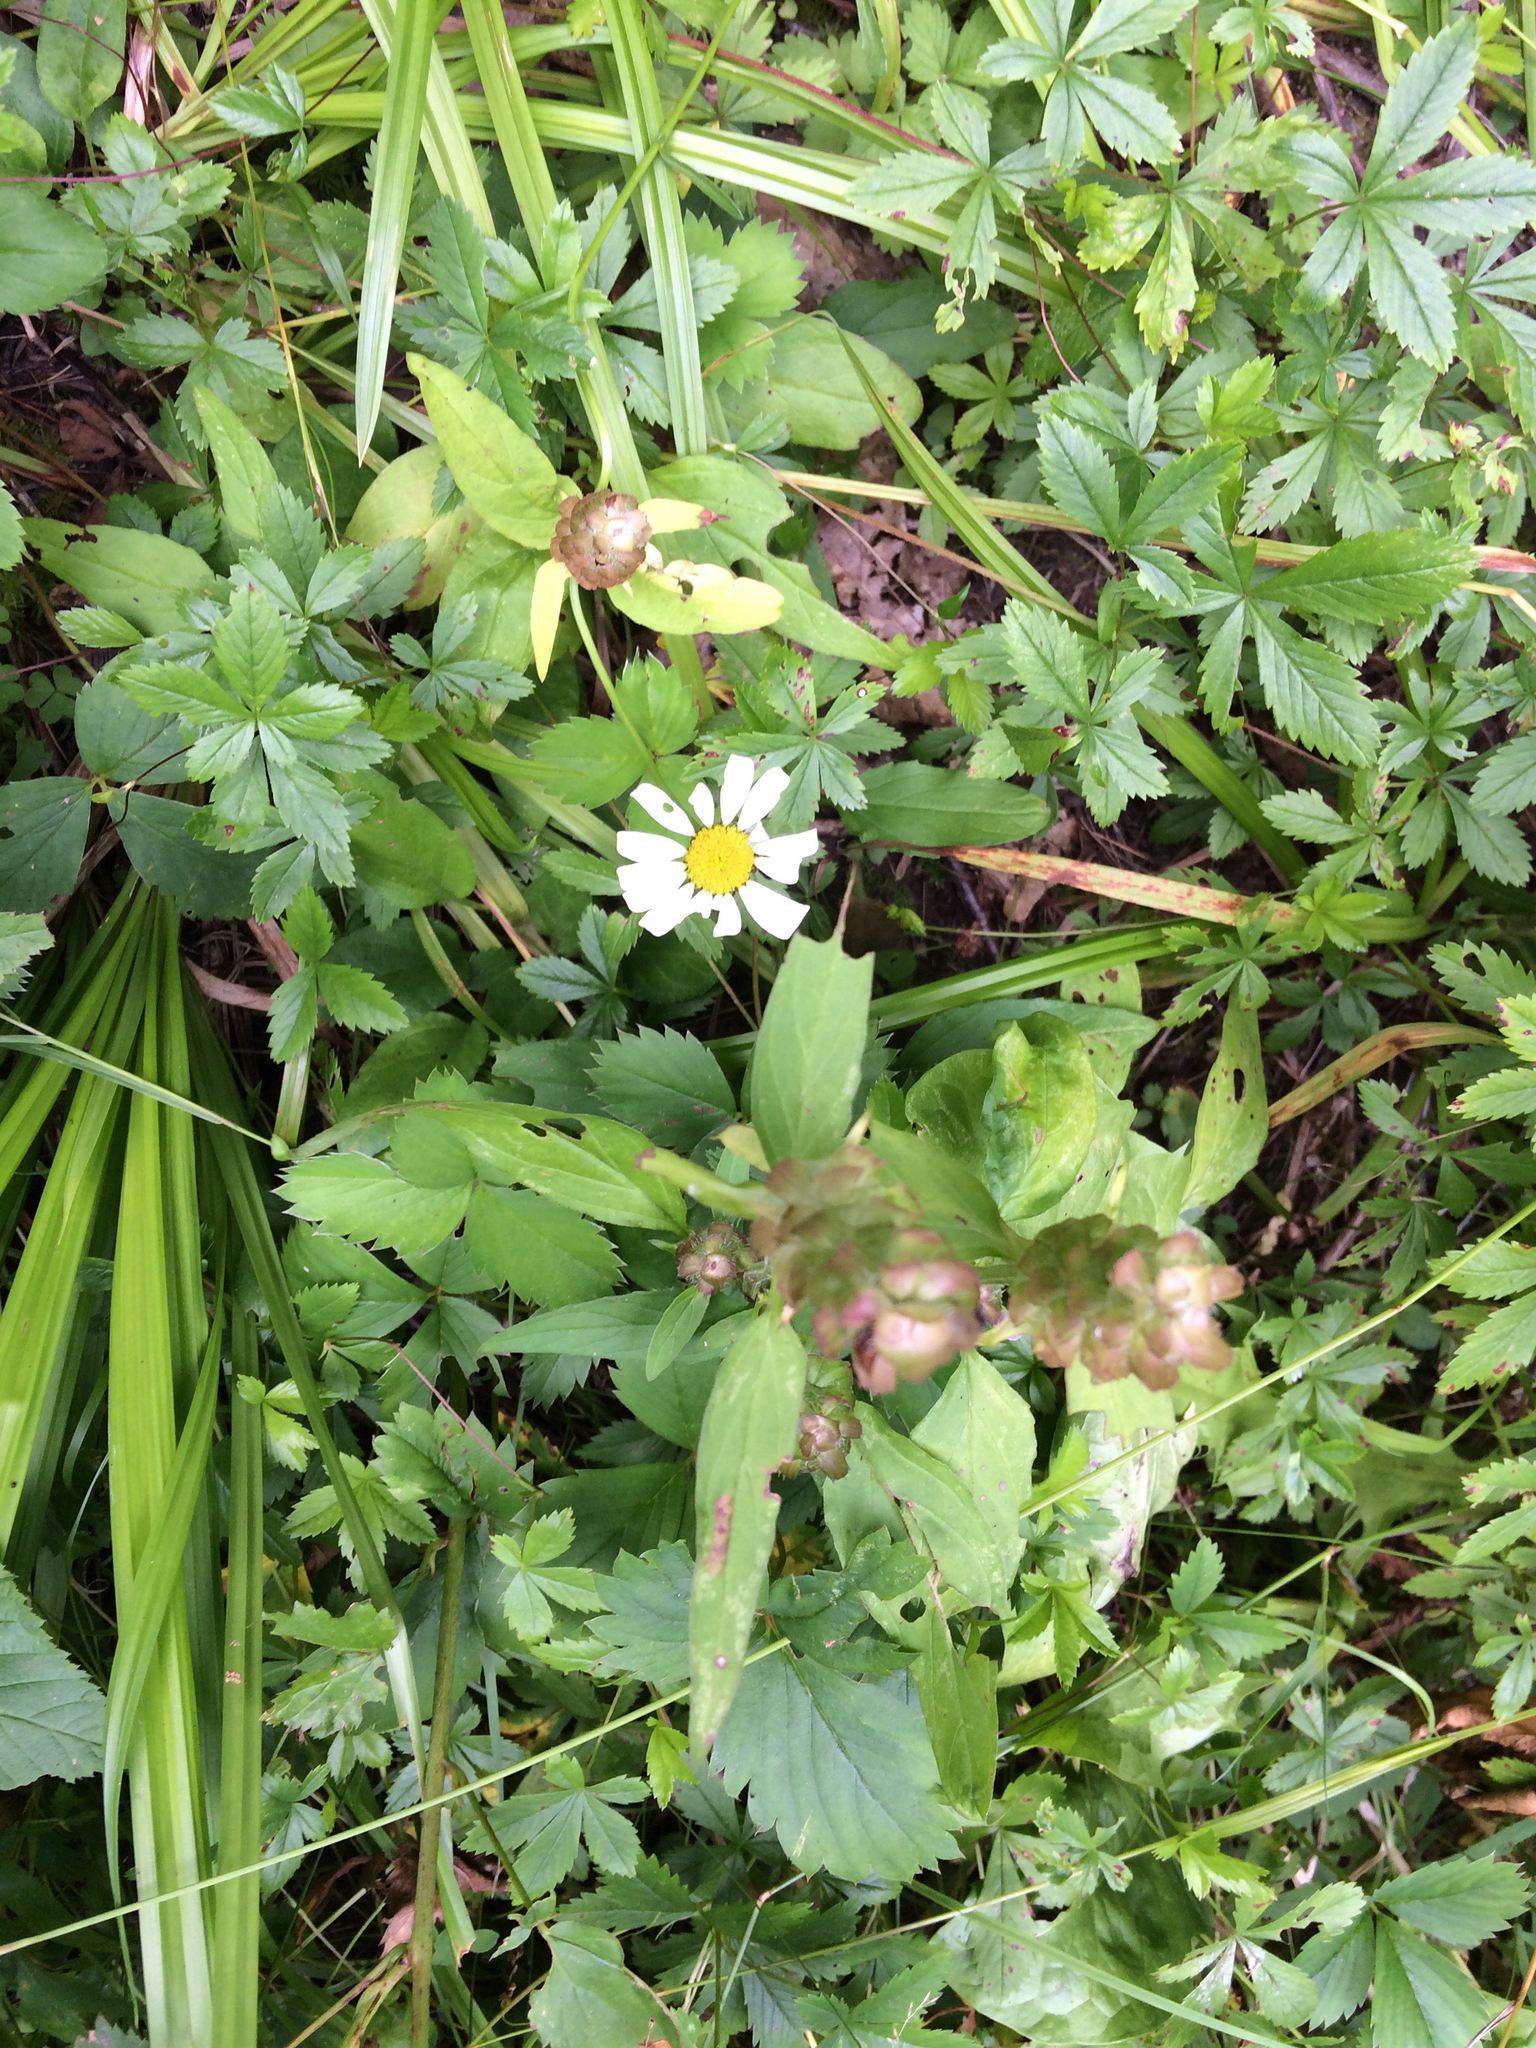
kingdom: Plantae
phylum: Tracheophyta
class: Magnoliopsida
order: Asterales
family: Asteraceae
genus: Leucanthemum
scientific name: Leucanthemum vulgare
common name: Oxeye daisy
